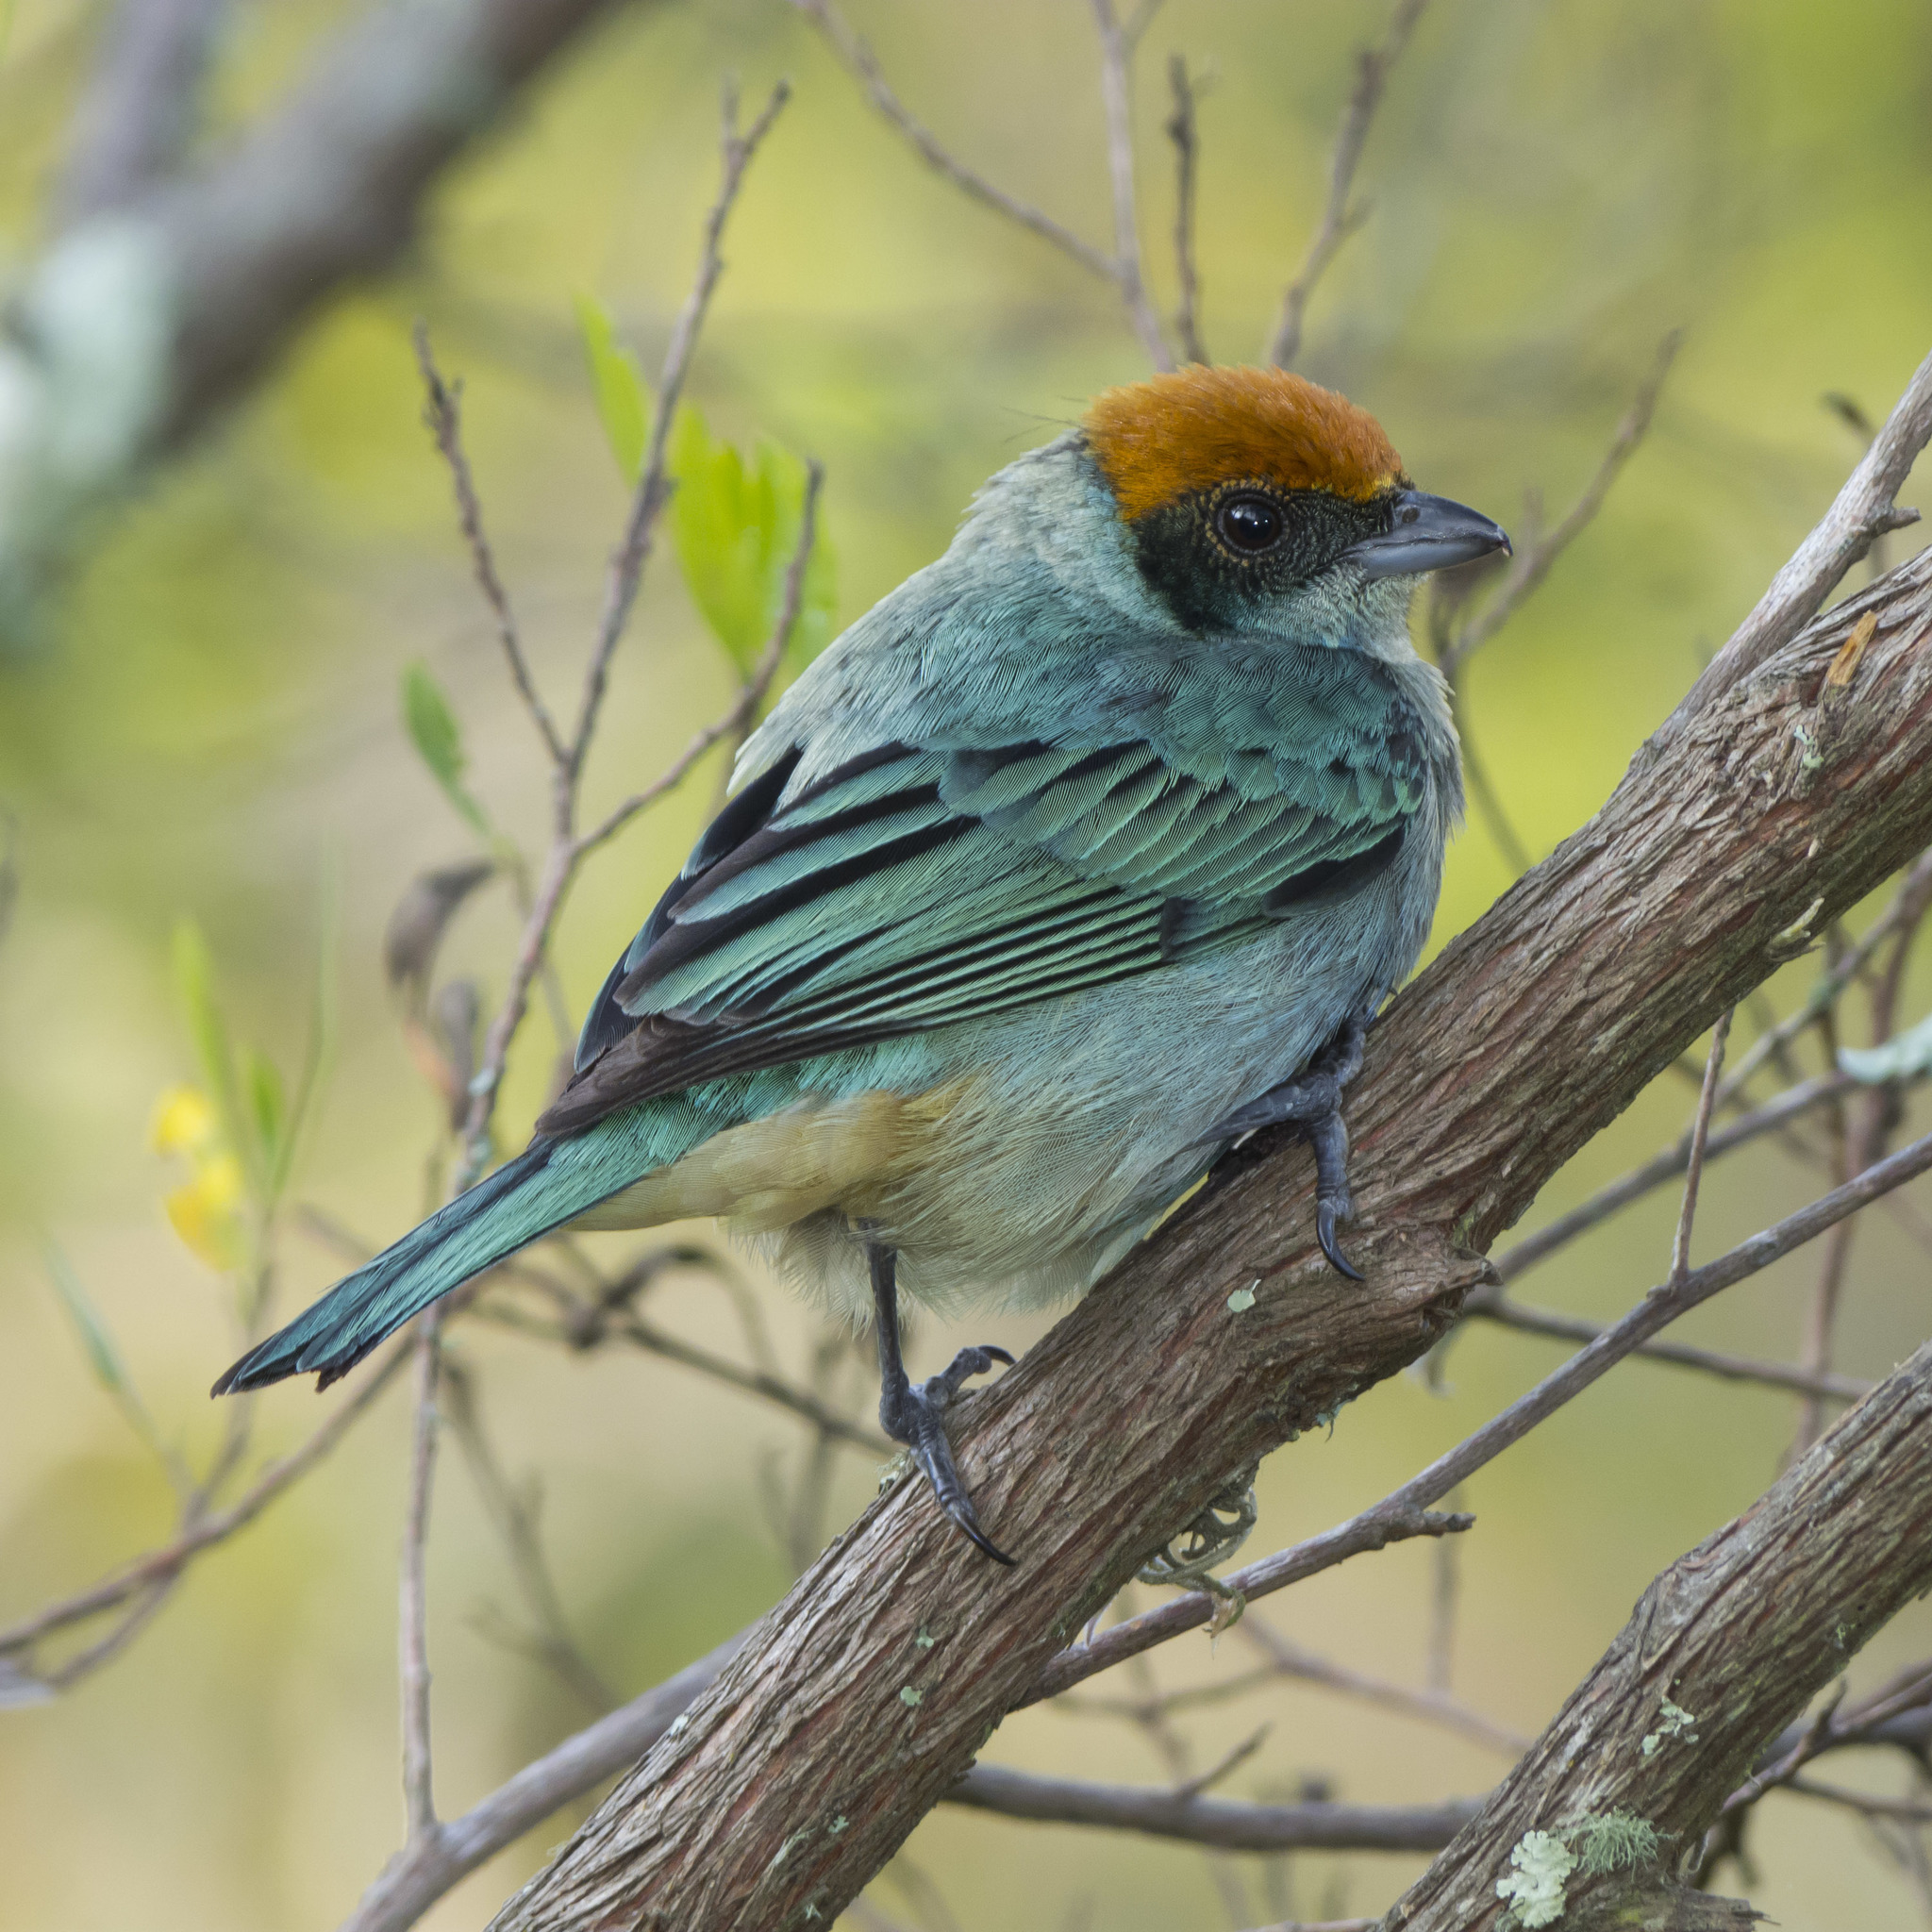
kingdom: Animalia
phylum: Chordata
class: Aves
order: Passeriformes
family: Thraupidae
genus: Stilpnia
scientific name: Stilpnia vitriolina
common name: Scrub tanager
